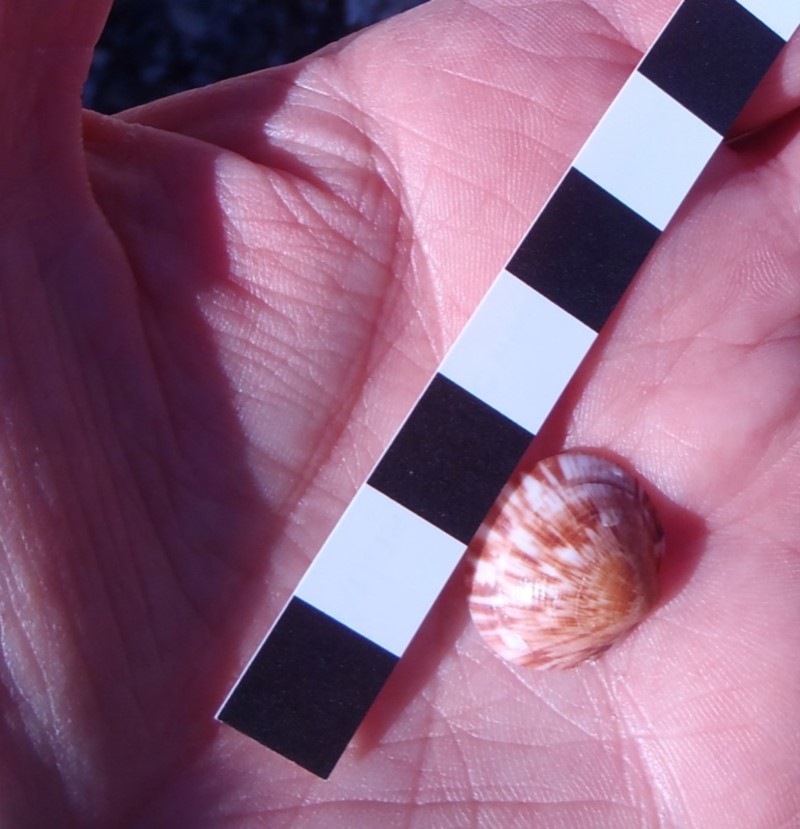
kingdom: Animalia
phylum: Mollusca
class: Bivalvia
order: Arcida
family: Glycymerididae
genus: Glycymeris
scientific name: Glycymeris grayana
